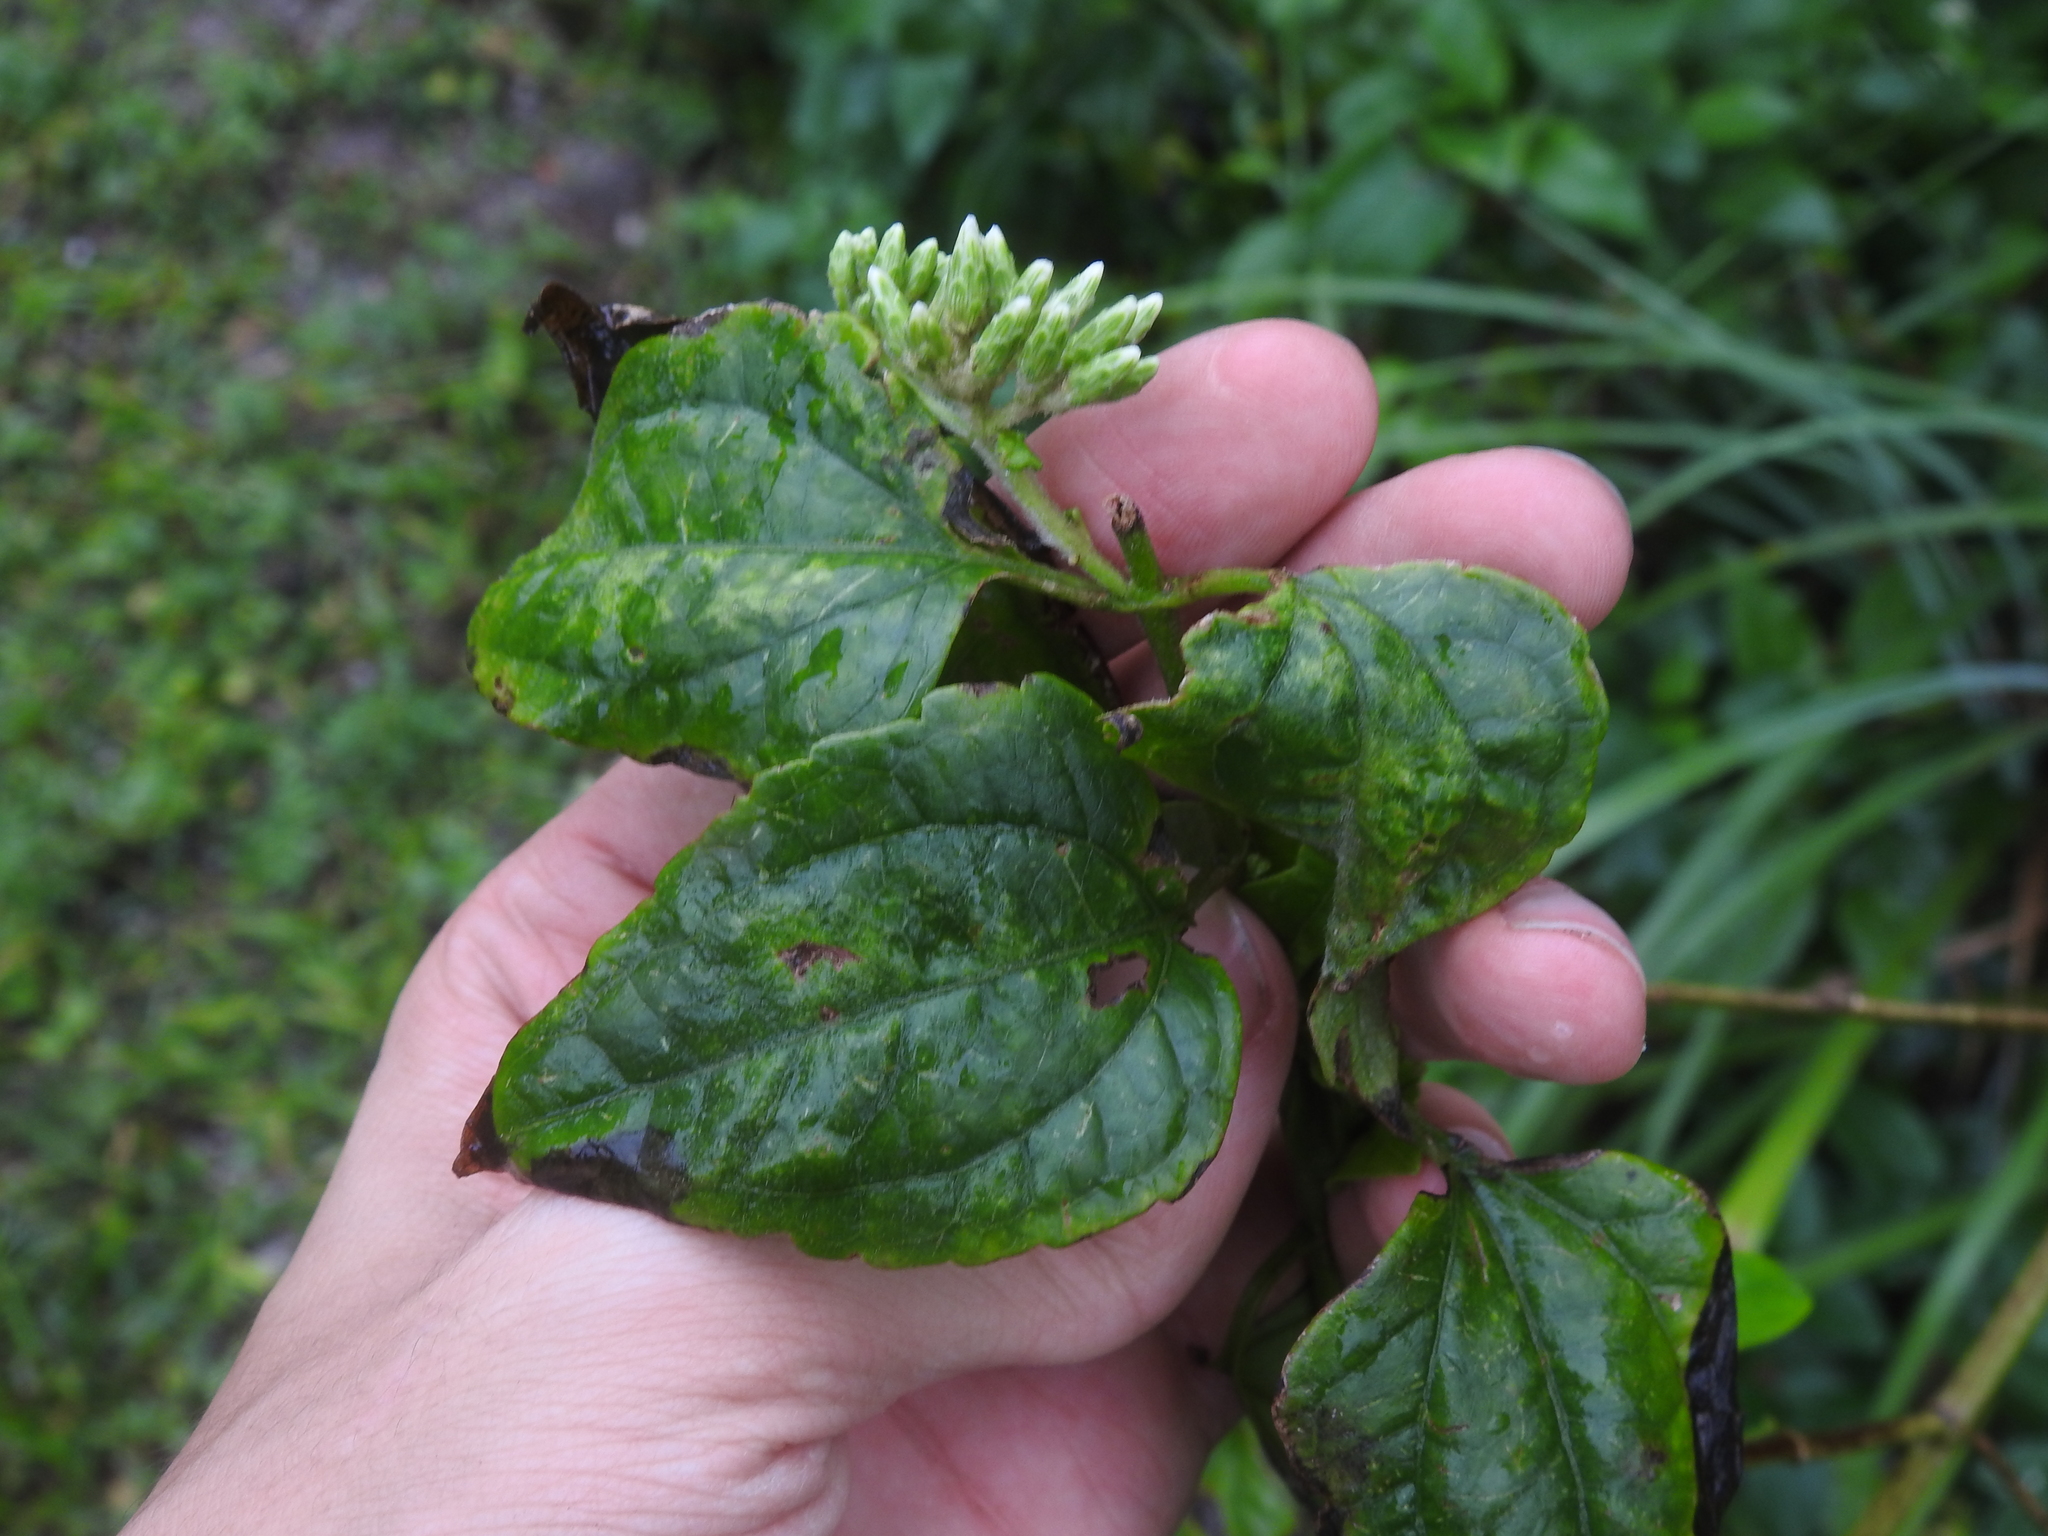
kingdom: Plantae
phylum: Tracheophyta
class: Magnoliopsida
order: Asterales
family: Asteraceae
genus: Chromolaena
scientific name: Chromolaena odorata
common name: Siamweed
